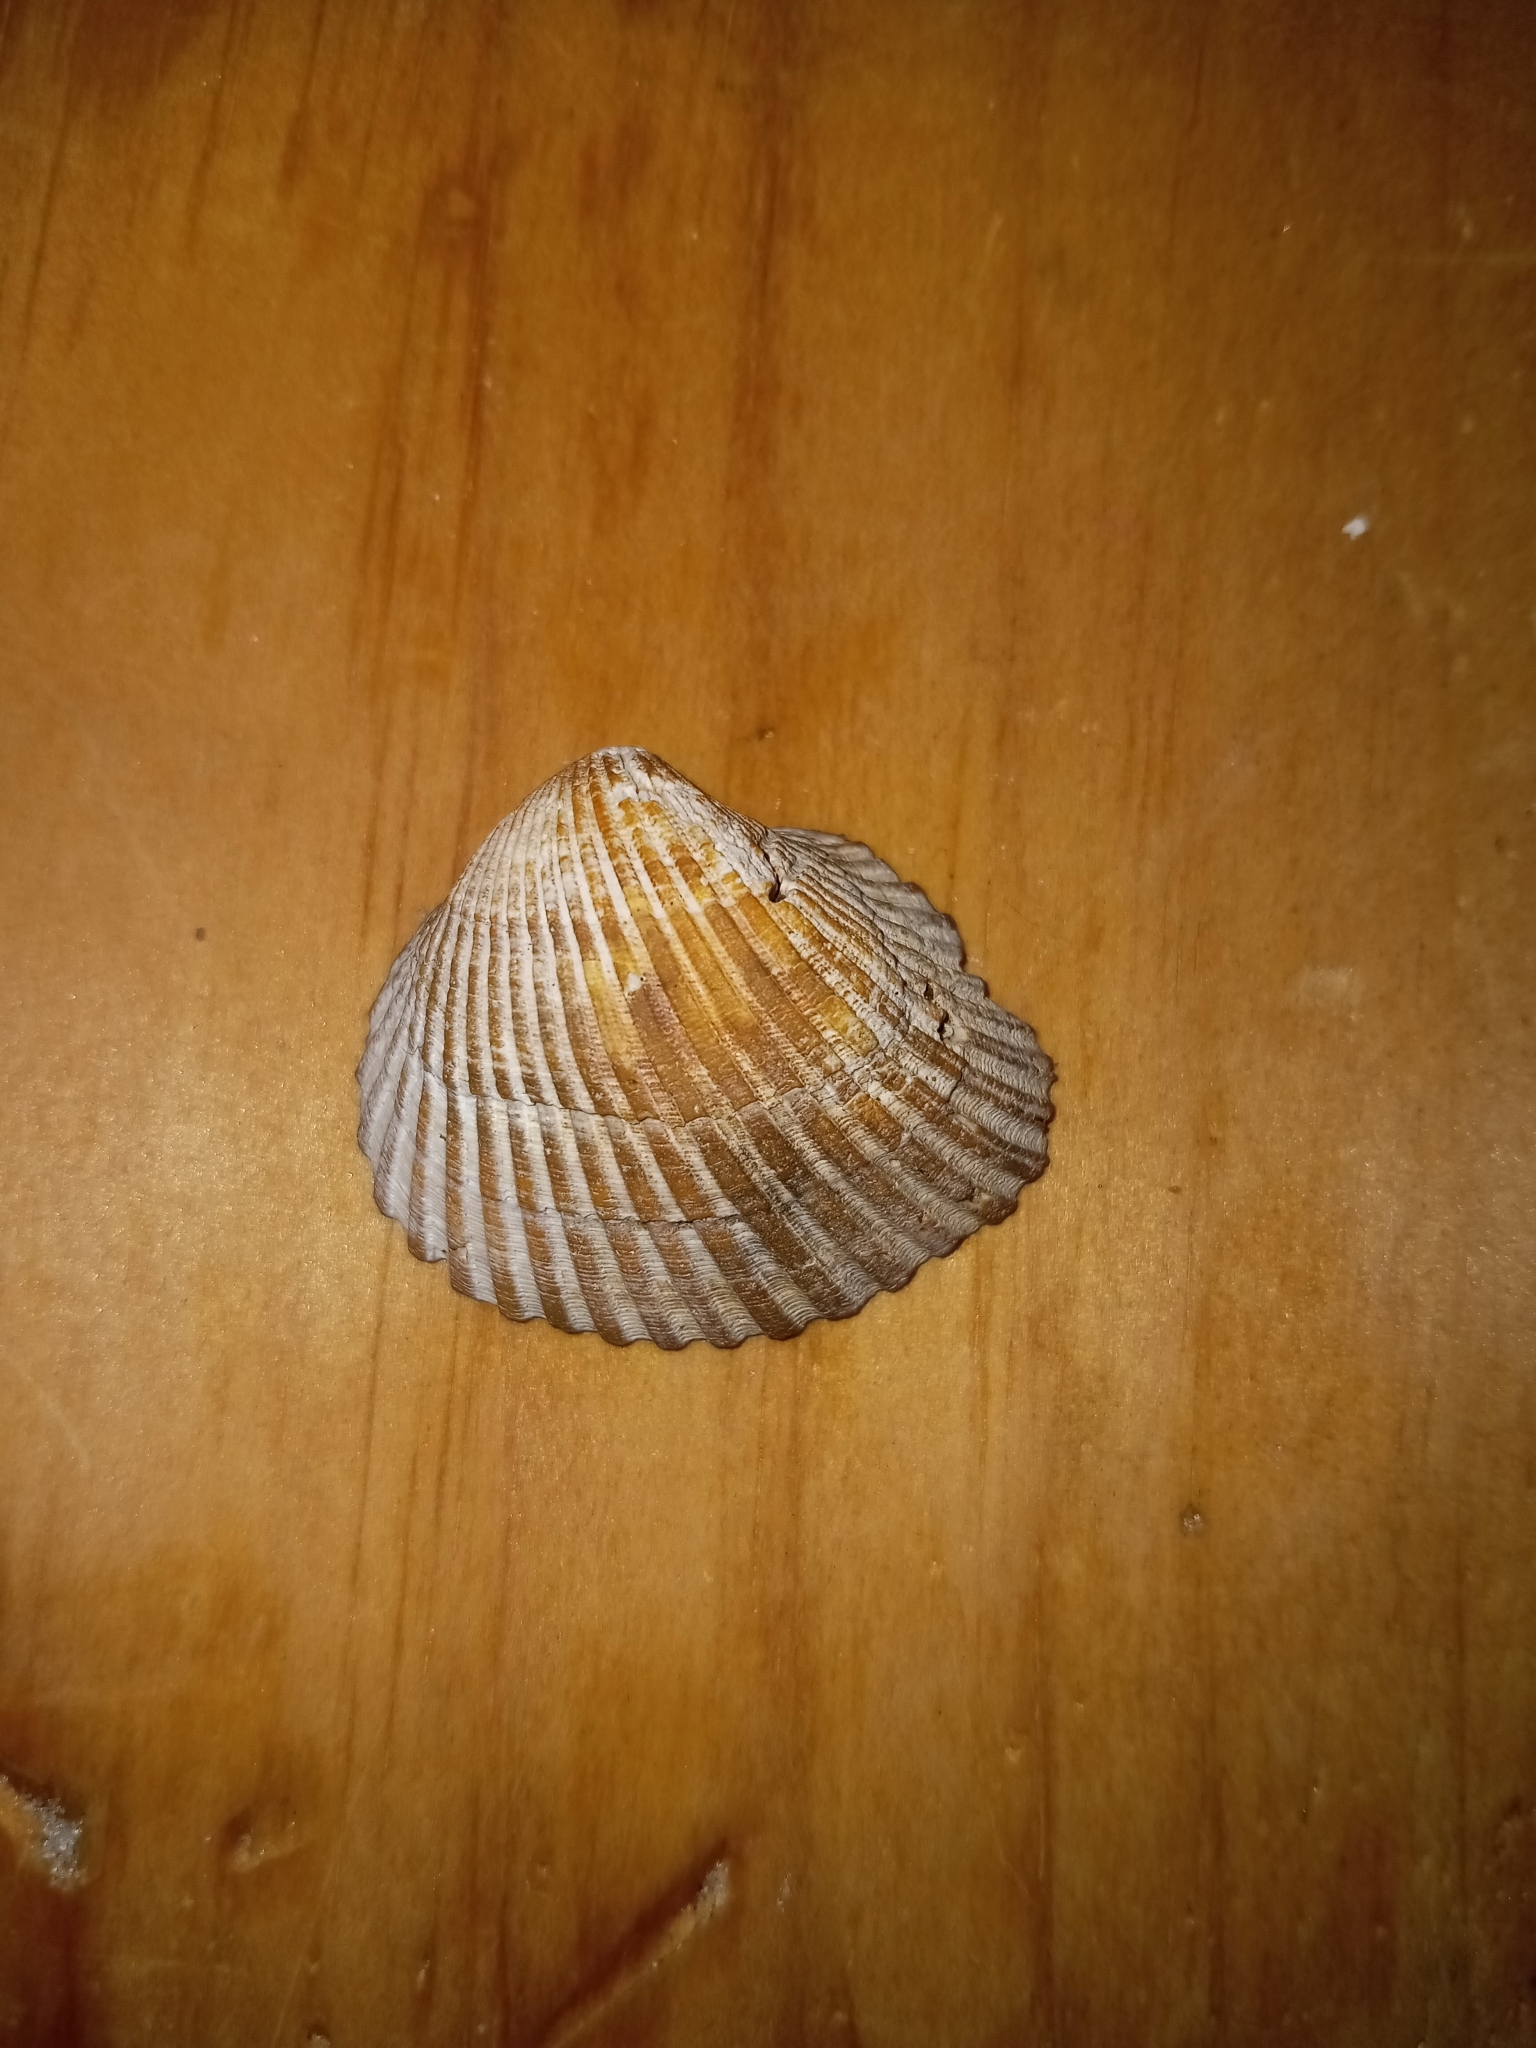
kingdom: Animalia
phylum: Mollusca
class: Bivalvia
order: Arcida
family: Noetiidae
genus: Noetia
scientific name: Noetia ponderosa
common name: Ponderous ark
